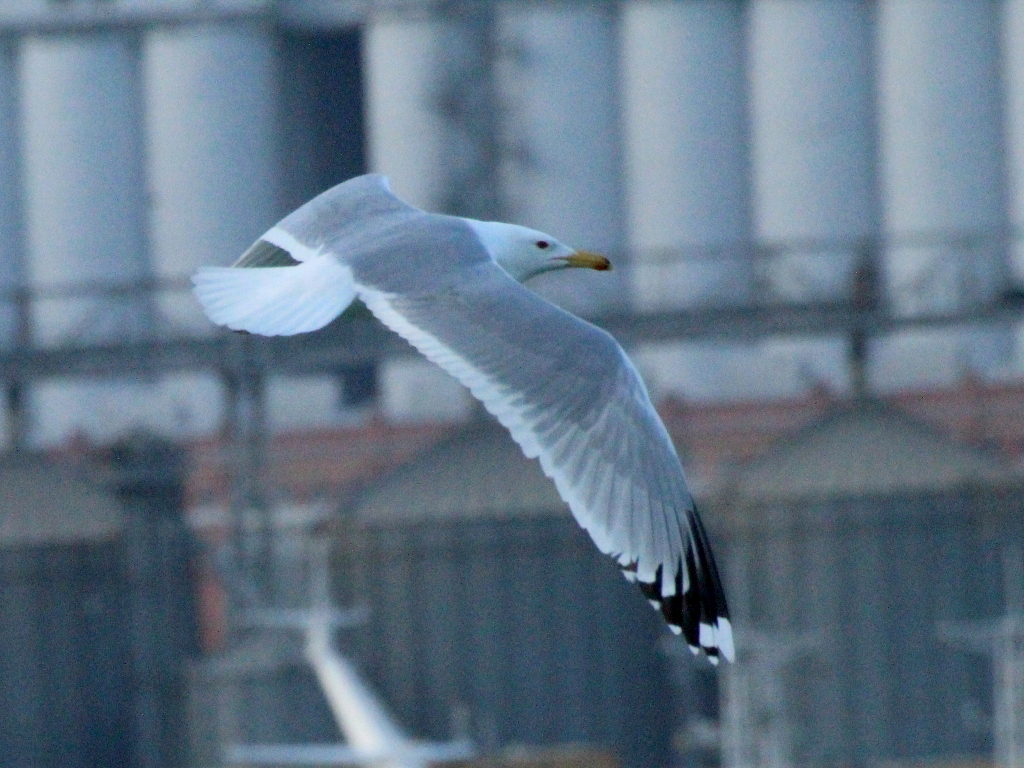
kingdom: Animalia
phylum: Chordata
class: Aves
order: Charadriiformes
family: Laridae
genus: Larus
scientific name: Larus cachinnans
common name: Caspian gull
